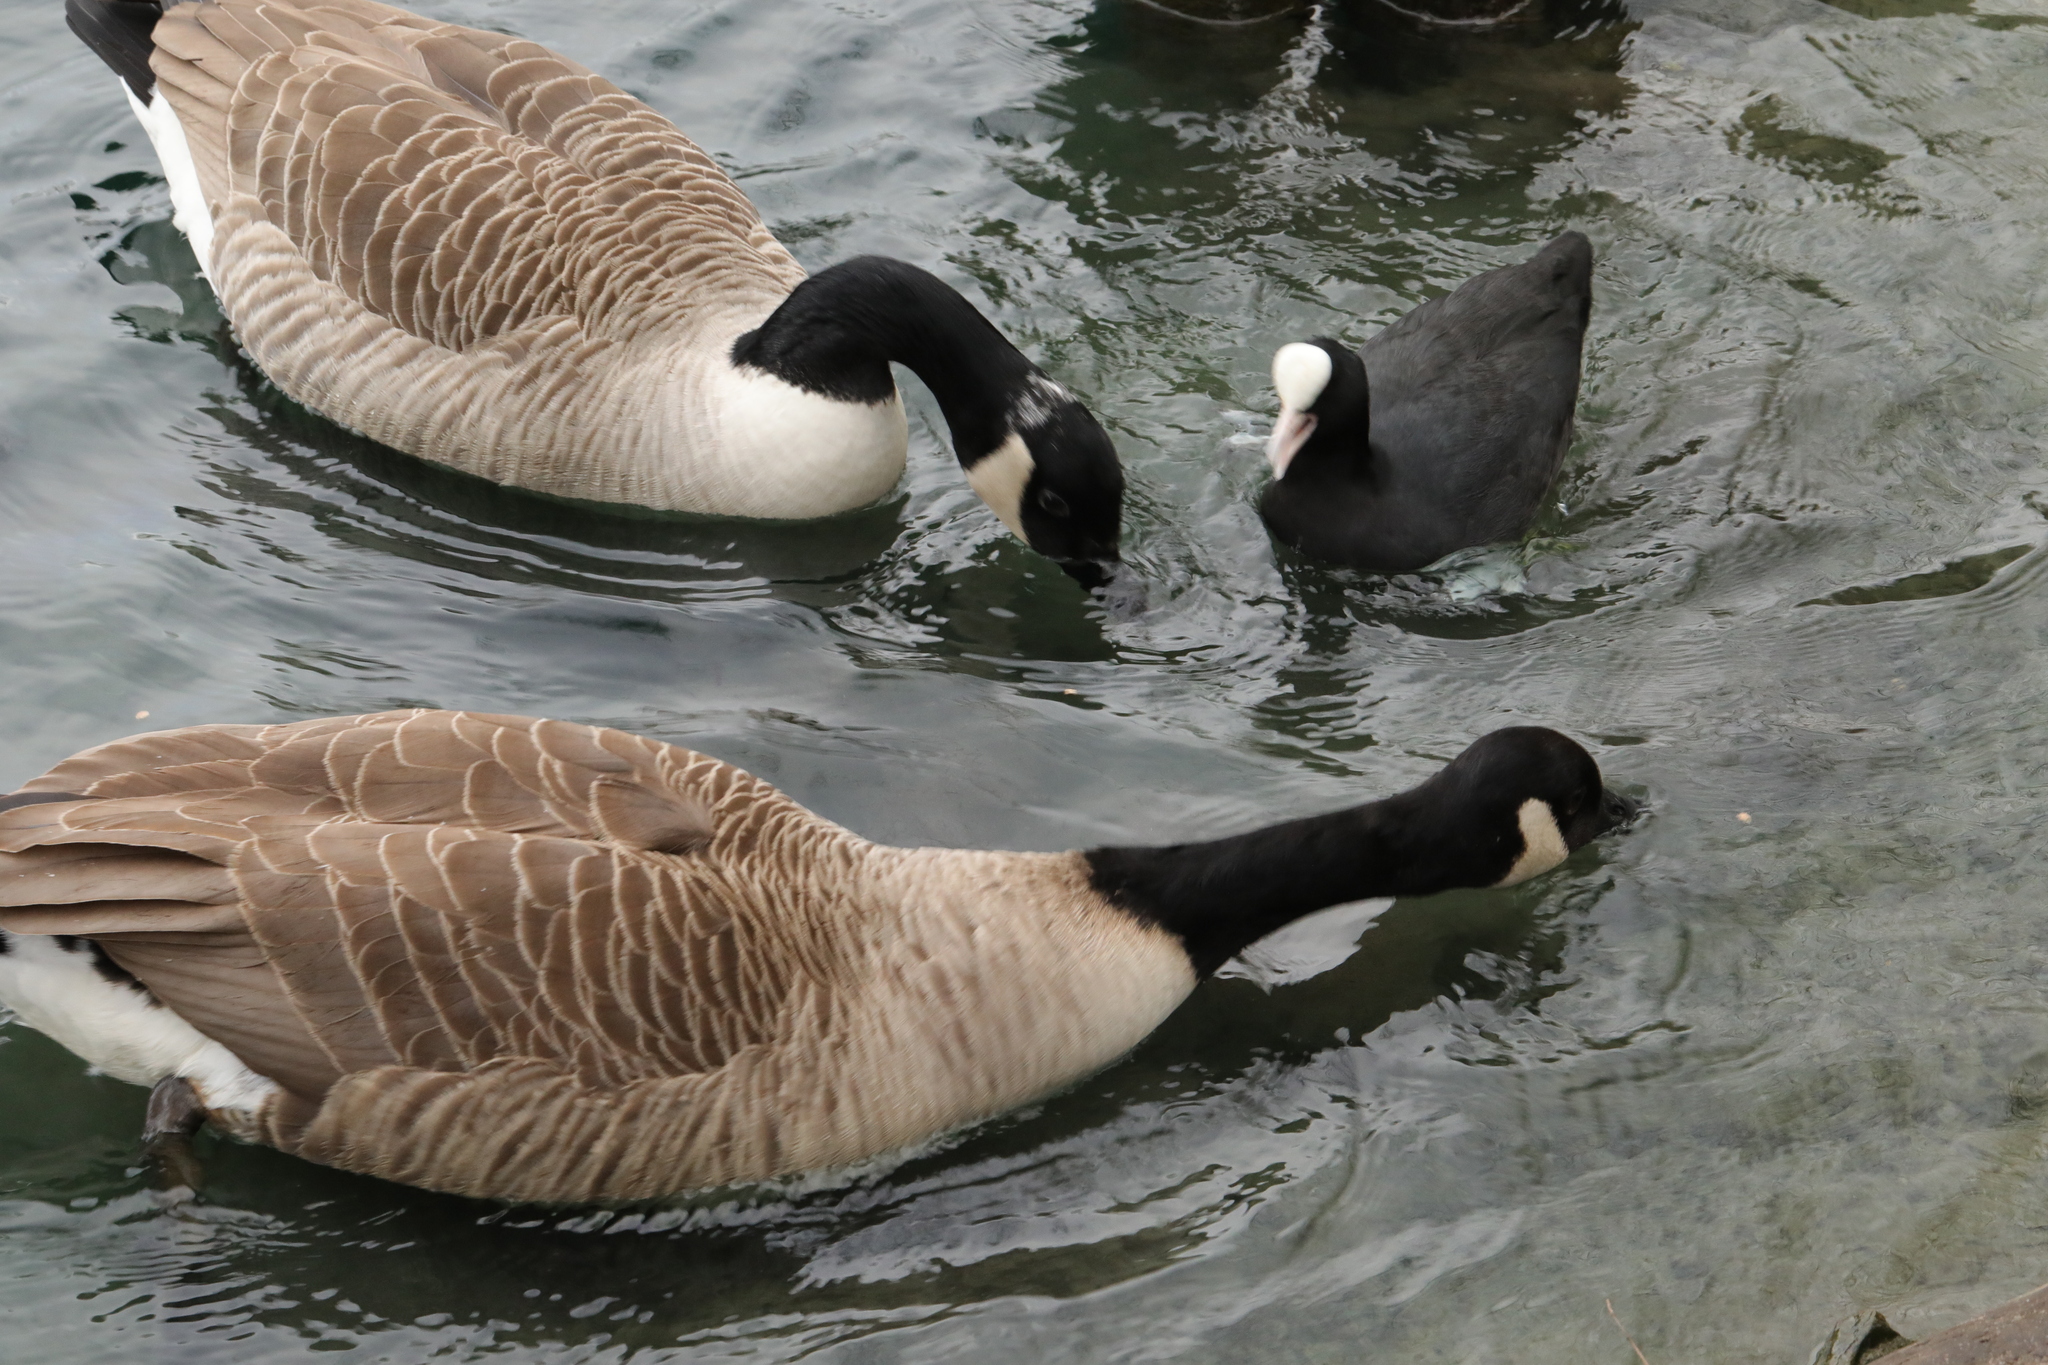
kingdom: Animalia
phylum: Chordata
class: Aves
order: Gruiformes
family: Rallidae
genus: Fulica
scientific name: Fulica atra
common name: Eurasian coot
